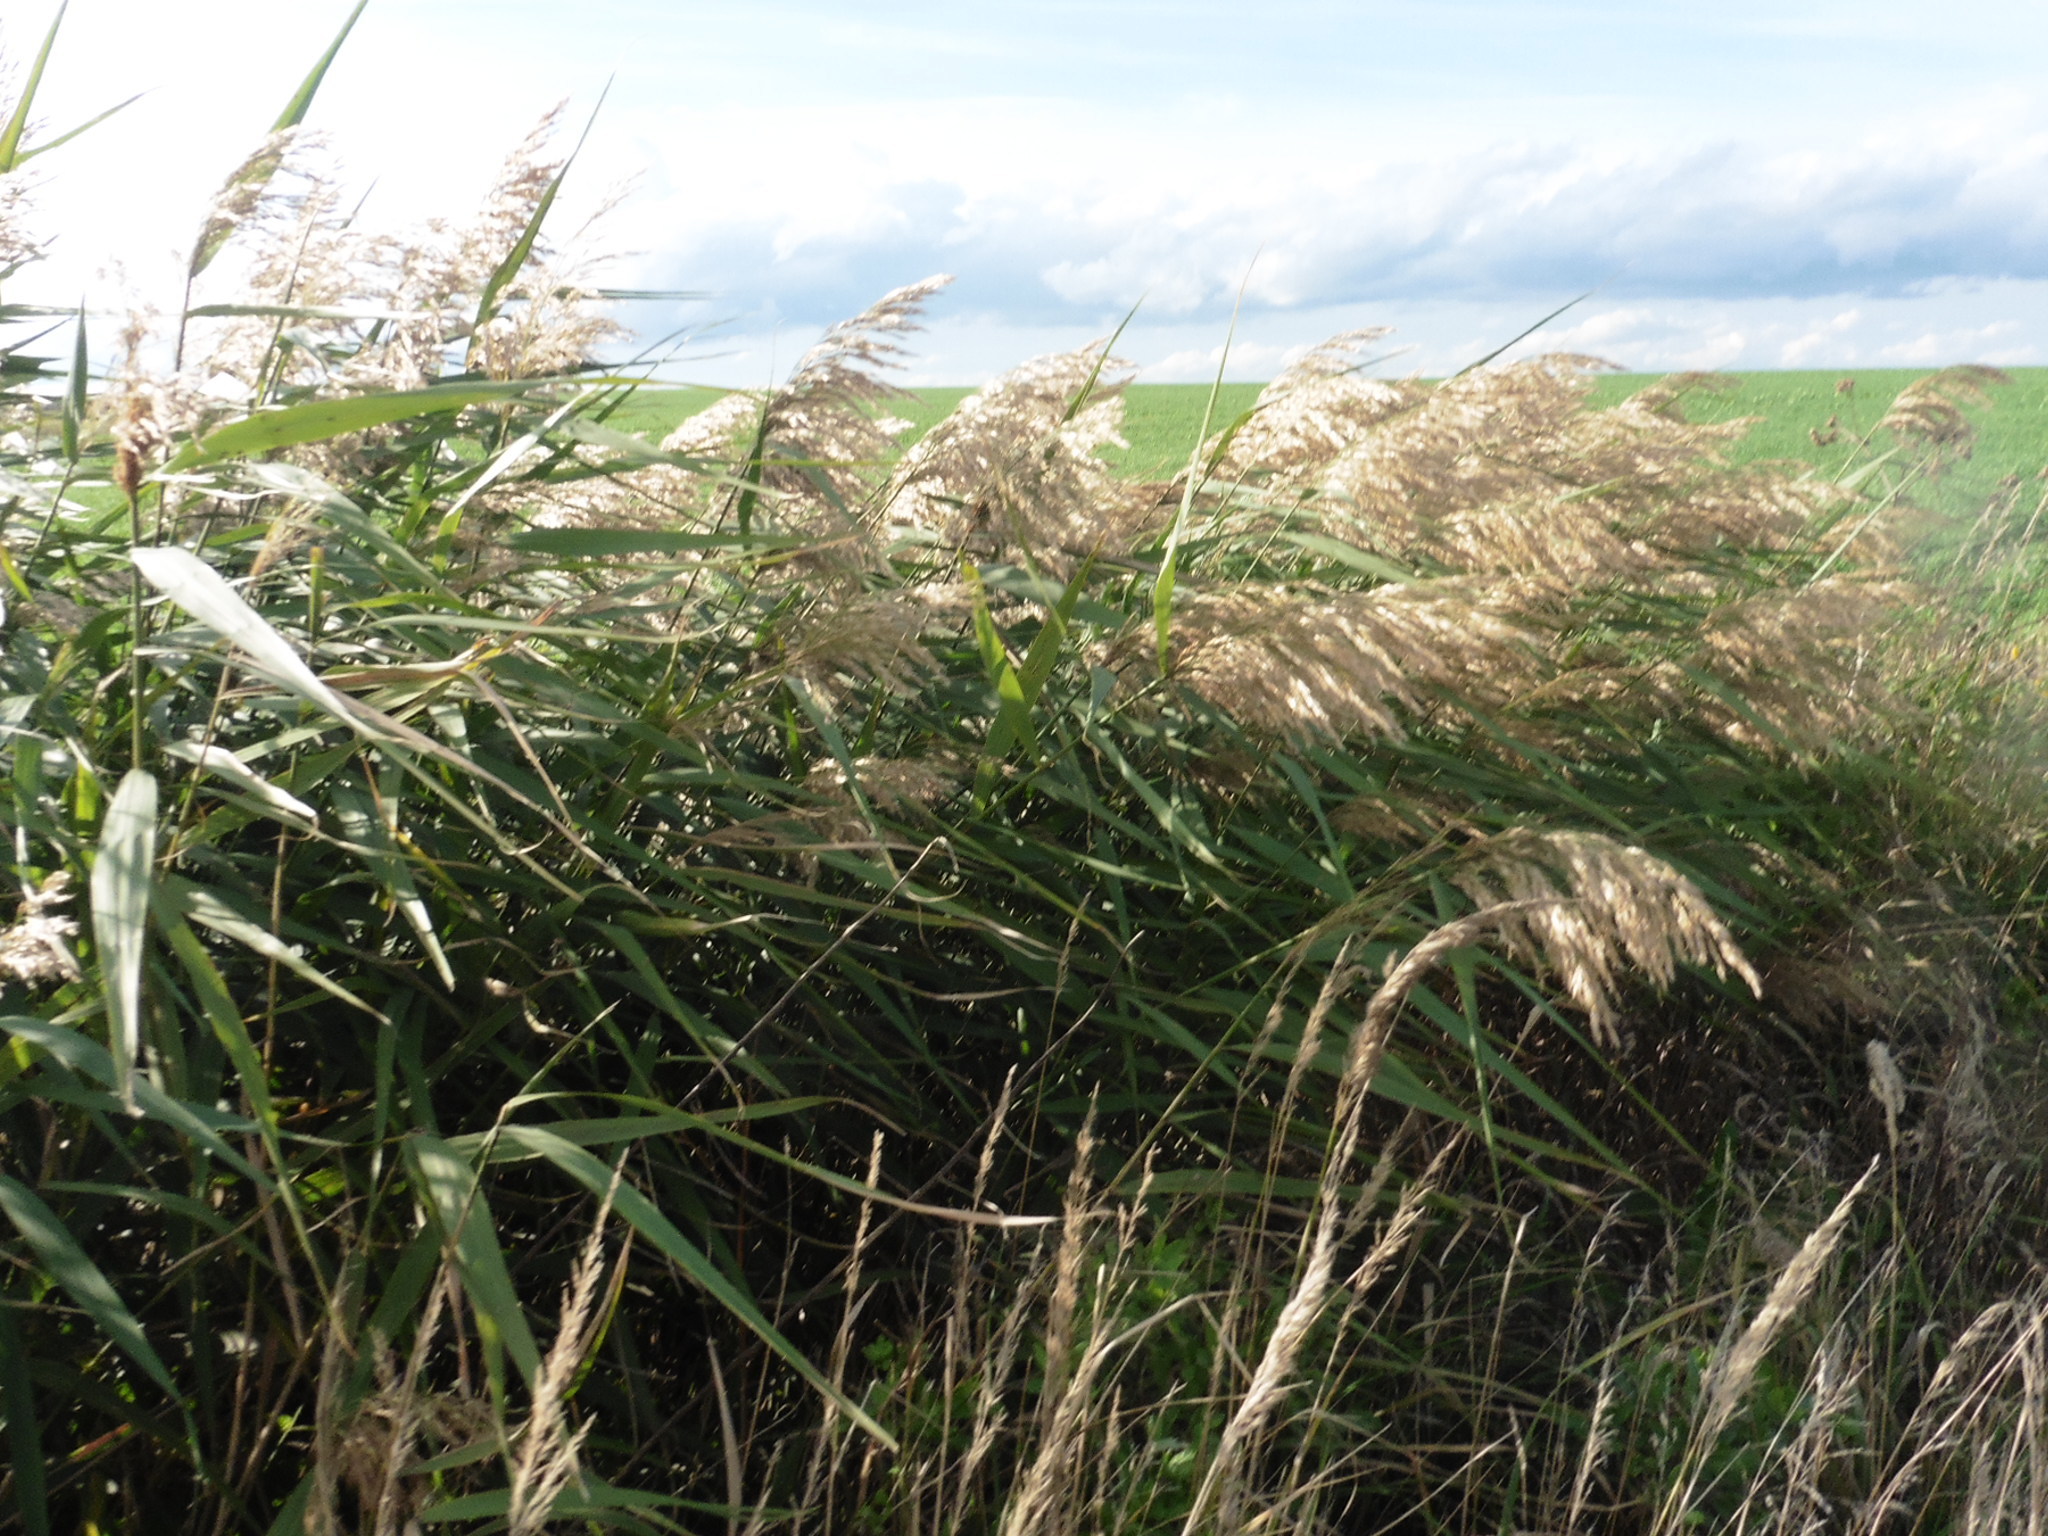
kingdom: Plantae
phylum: Tracheophyta
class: Liliopsida
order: Poales
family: Poaceae
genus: Phragmites
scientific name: Phragmites australis
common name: Common reed
